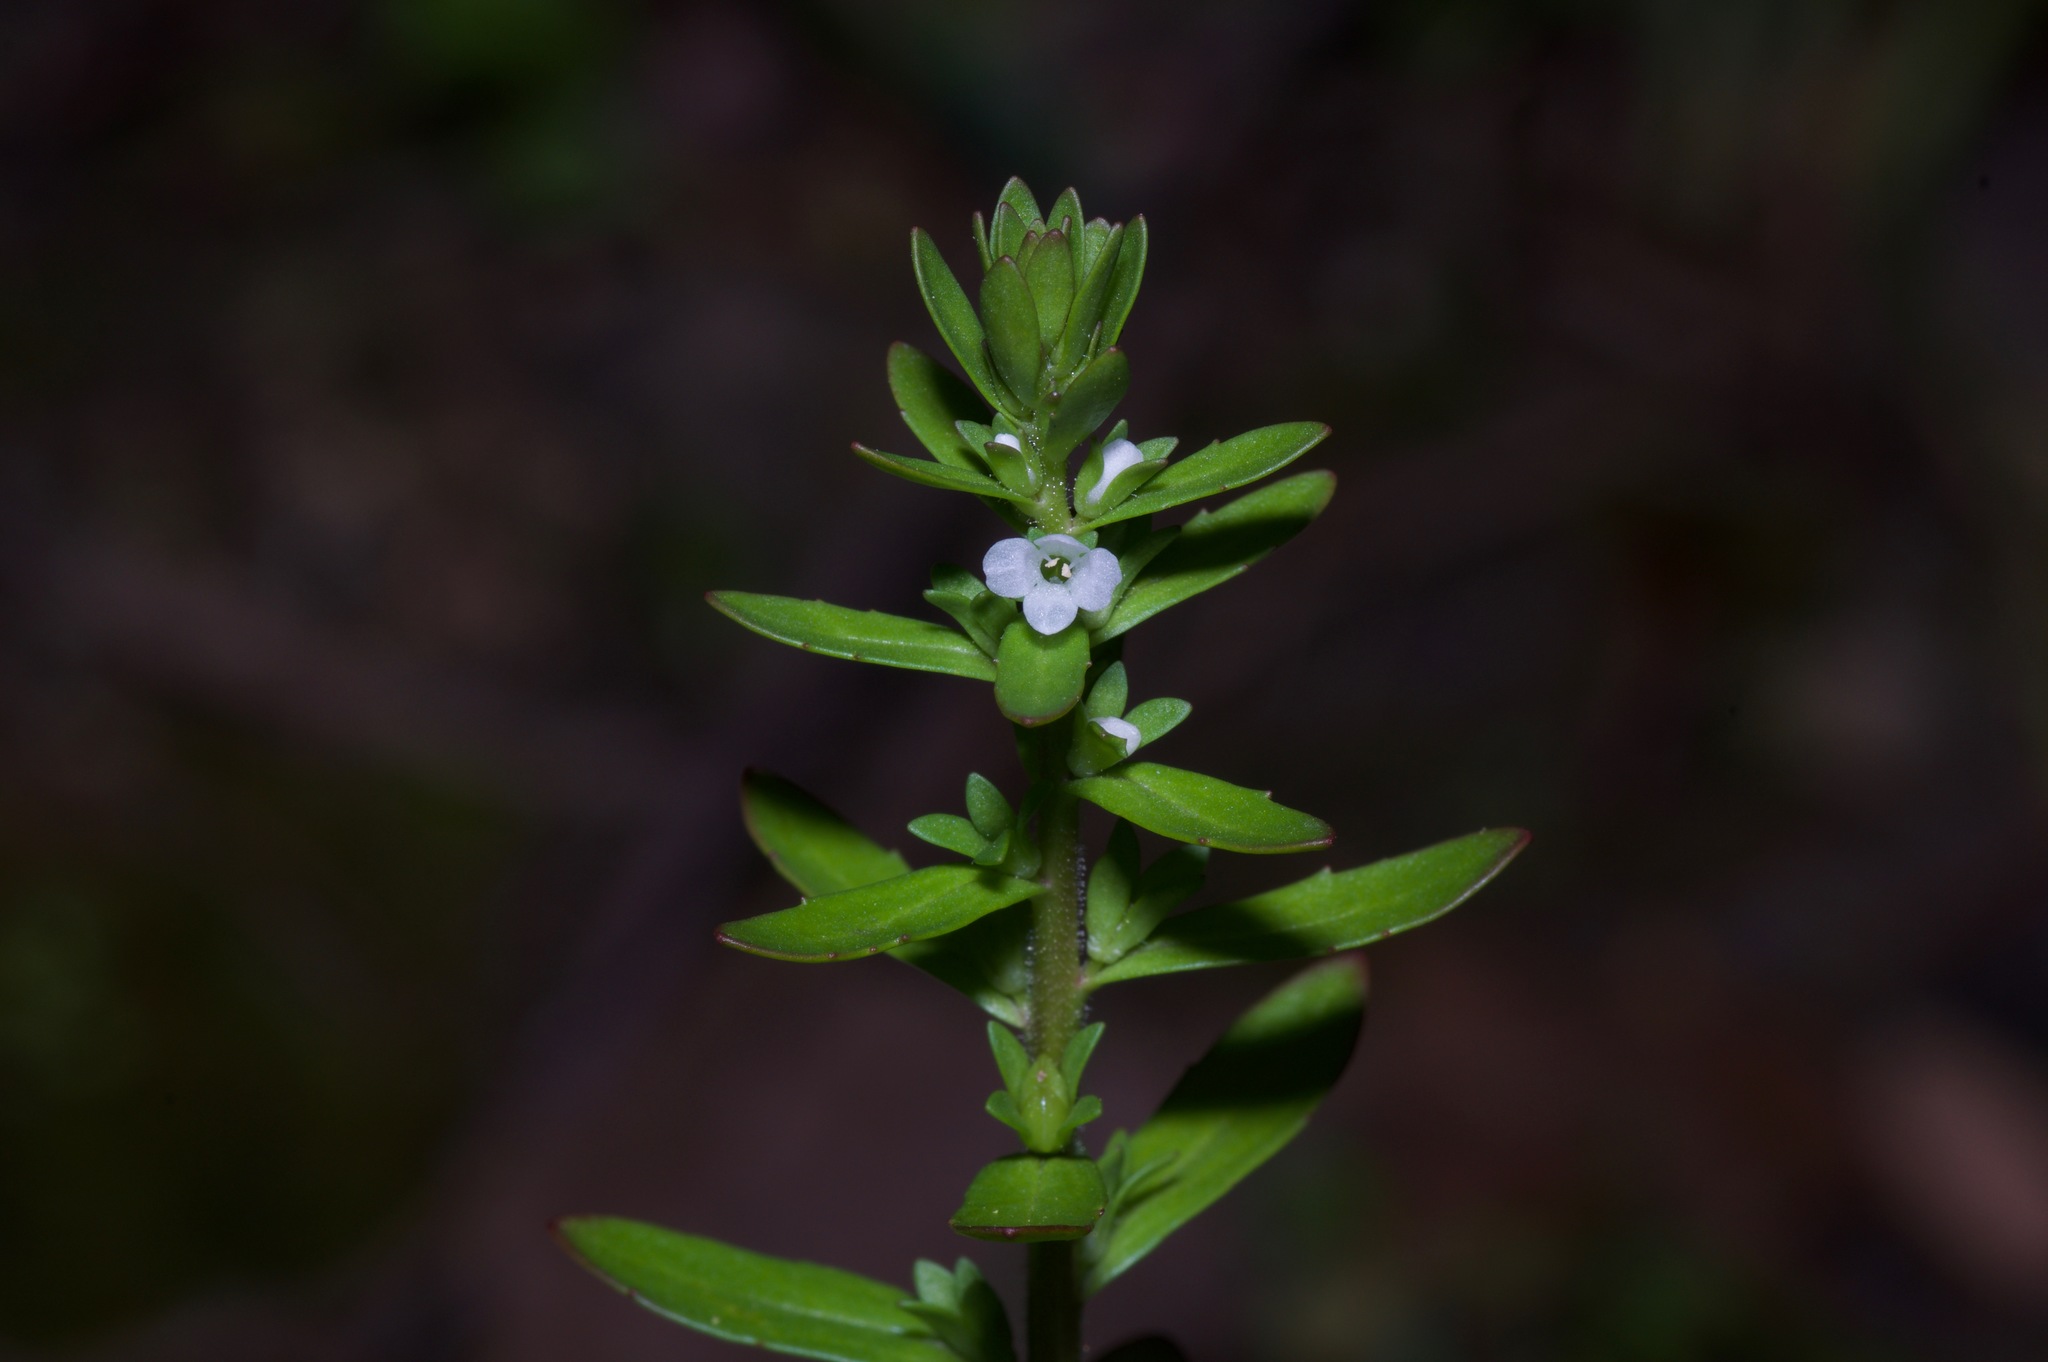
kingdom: Plantae
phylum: Tracheophyta
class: Magnoliopsida
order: Lamiales
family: Plantaginaceae
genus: Veronica
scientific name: Veronica peregrina
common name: Neckweed
